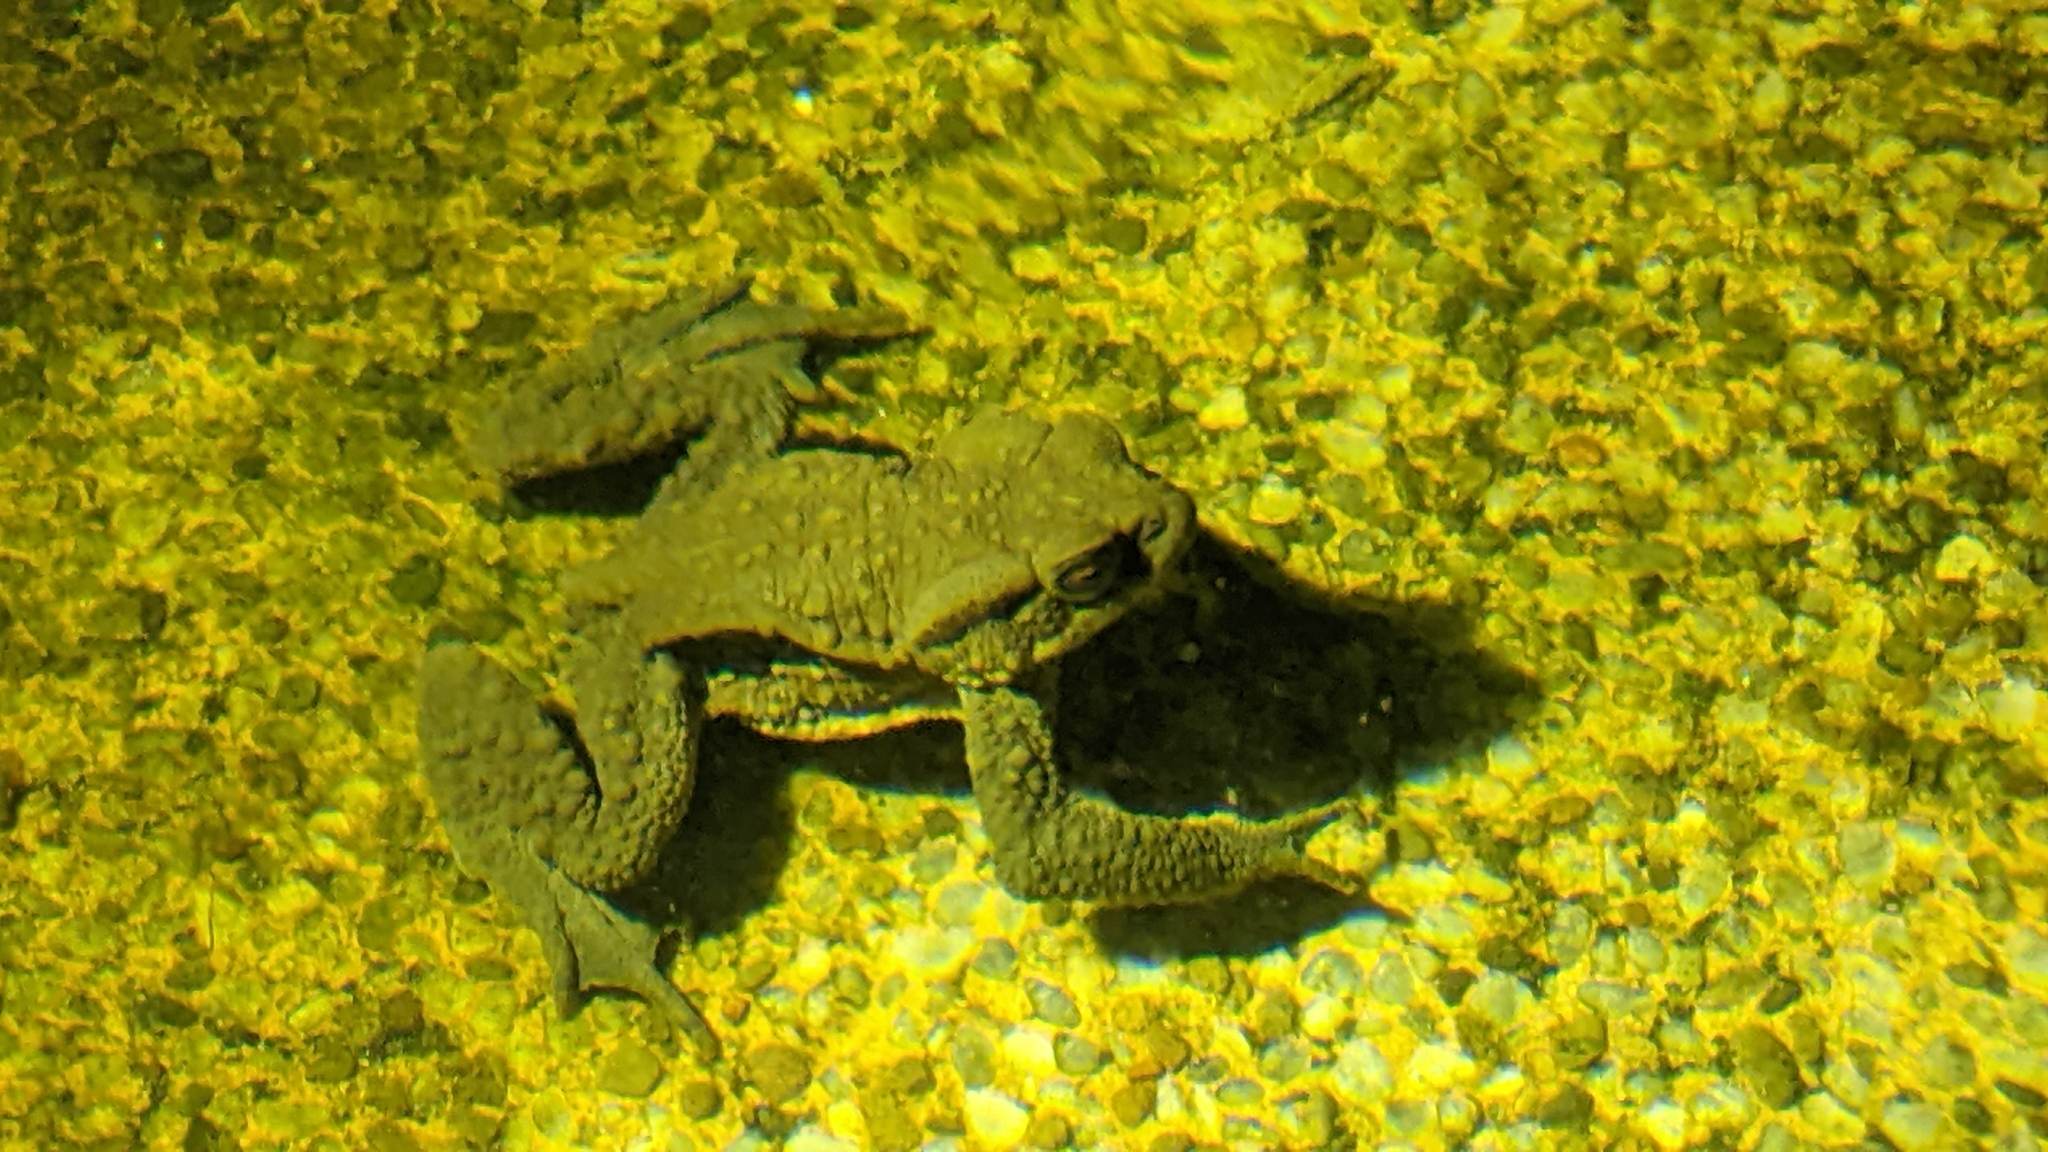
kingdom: Animalia
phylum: Chordata
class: Amphibia
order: Anura
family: Bufonidae
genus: Bufo
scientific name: Bufo bankorensis
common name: Bankor toad
